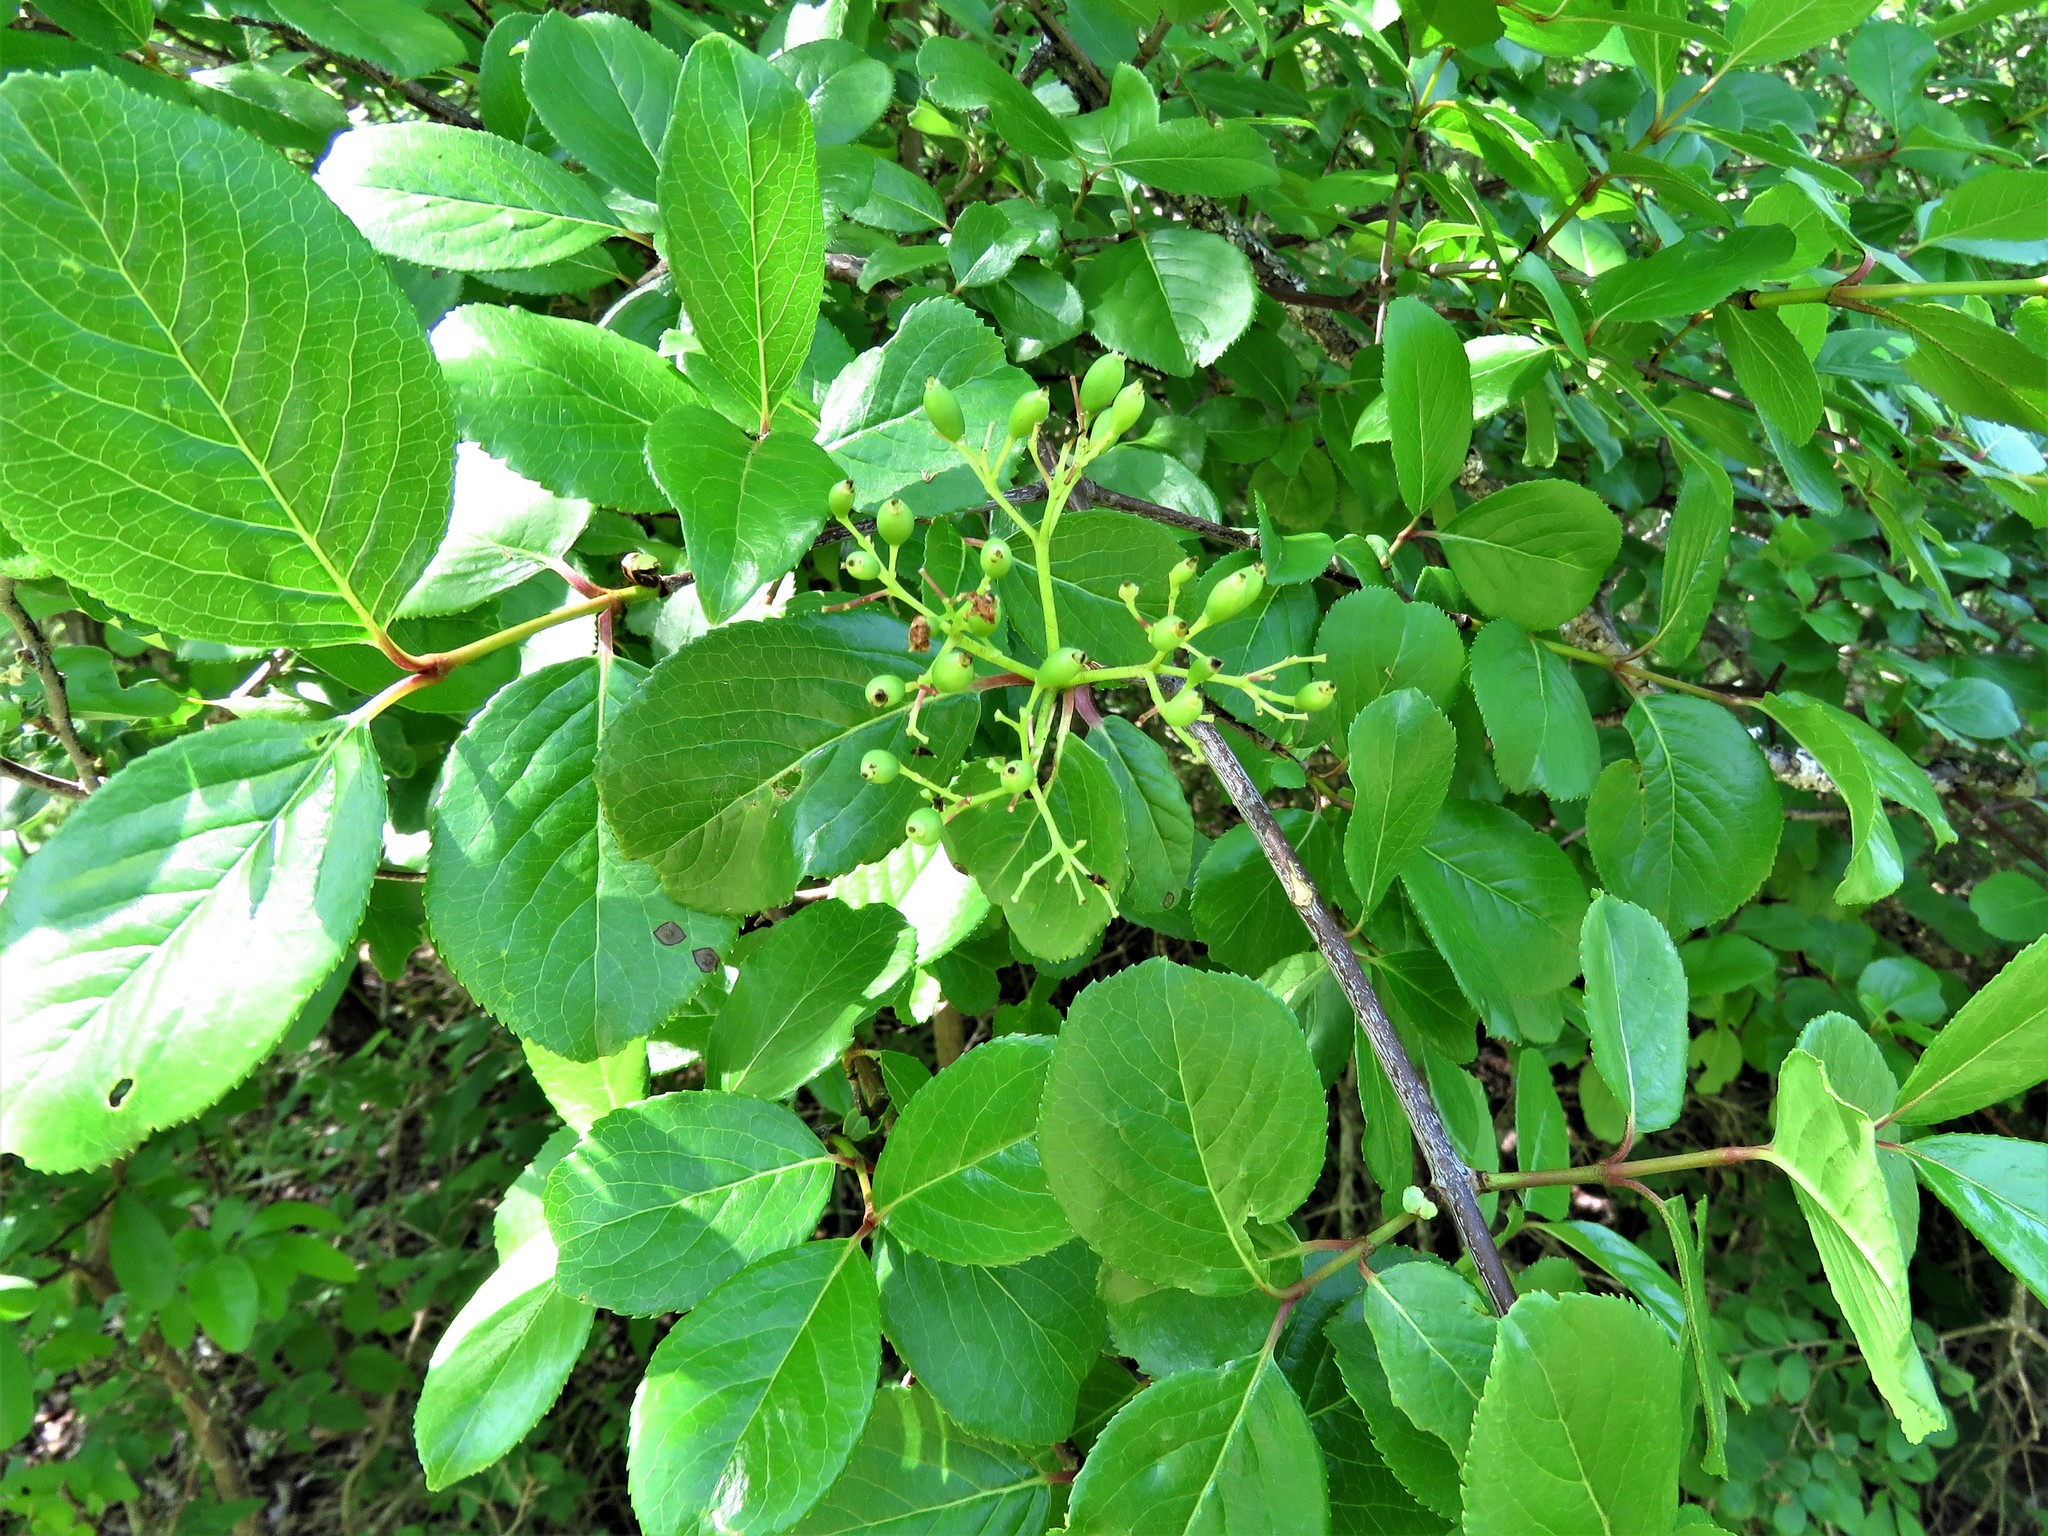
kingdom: Plantae
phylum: Tracheophyta
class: Magnoliopsida
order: Dipsacales
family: Viburnaceae
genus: Viburnum
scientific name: Viburnum rufidulum
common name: Blue haw
